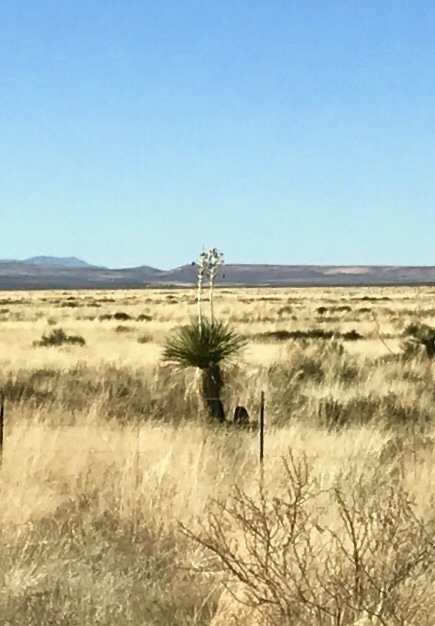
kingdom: Plantae
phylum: Tracheophyta
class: Liliopsida
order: Asparagales
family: Asparagaceae
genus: Yucca
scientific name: Yucca elata
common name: Palmella
